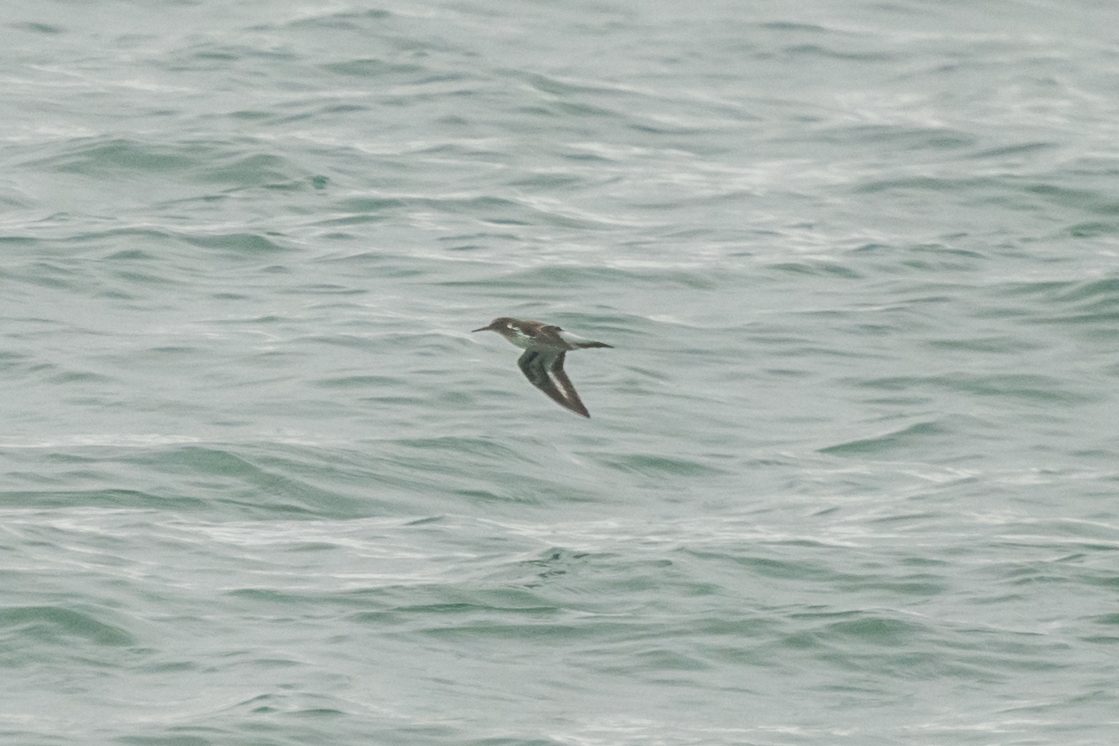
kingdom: Animalia
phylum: Chordata
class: Aves
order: Charadriiformes
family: Scolopacidae
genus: Actitis
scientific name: Actitis hypoleucos
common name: Common sandpiper
